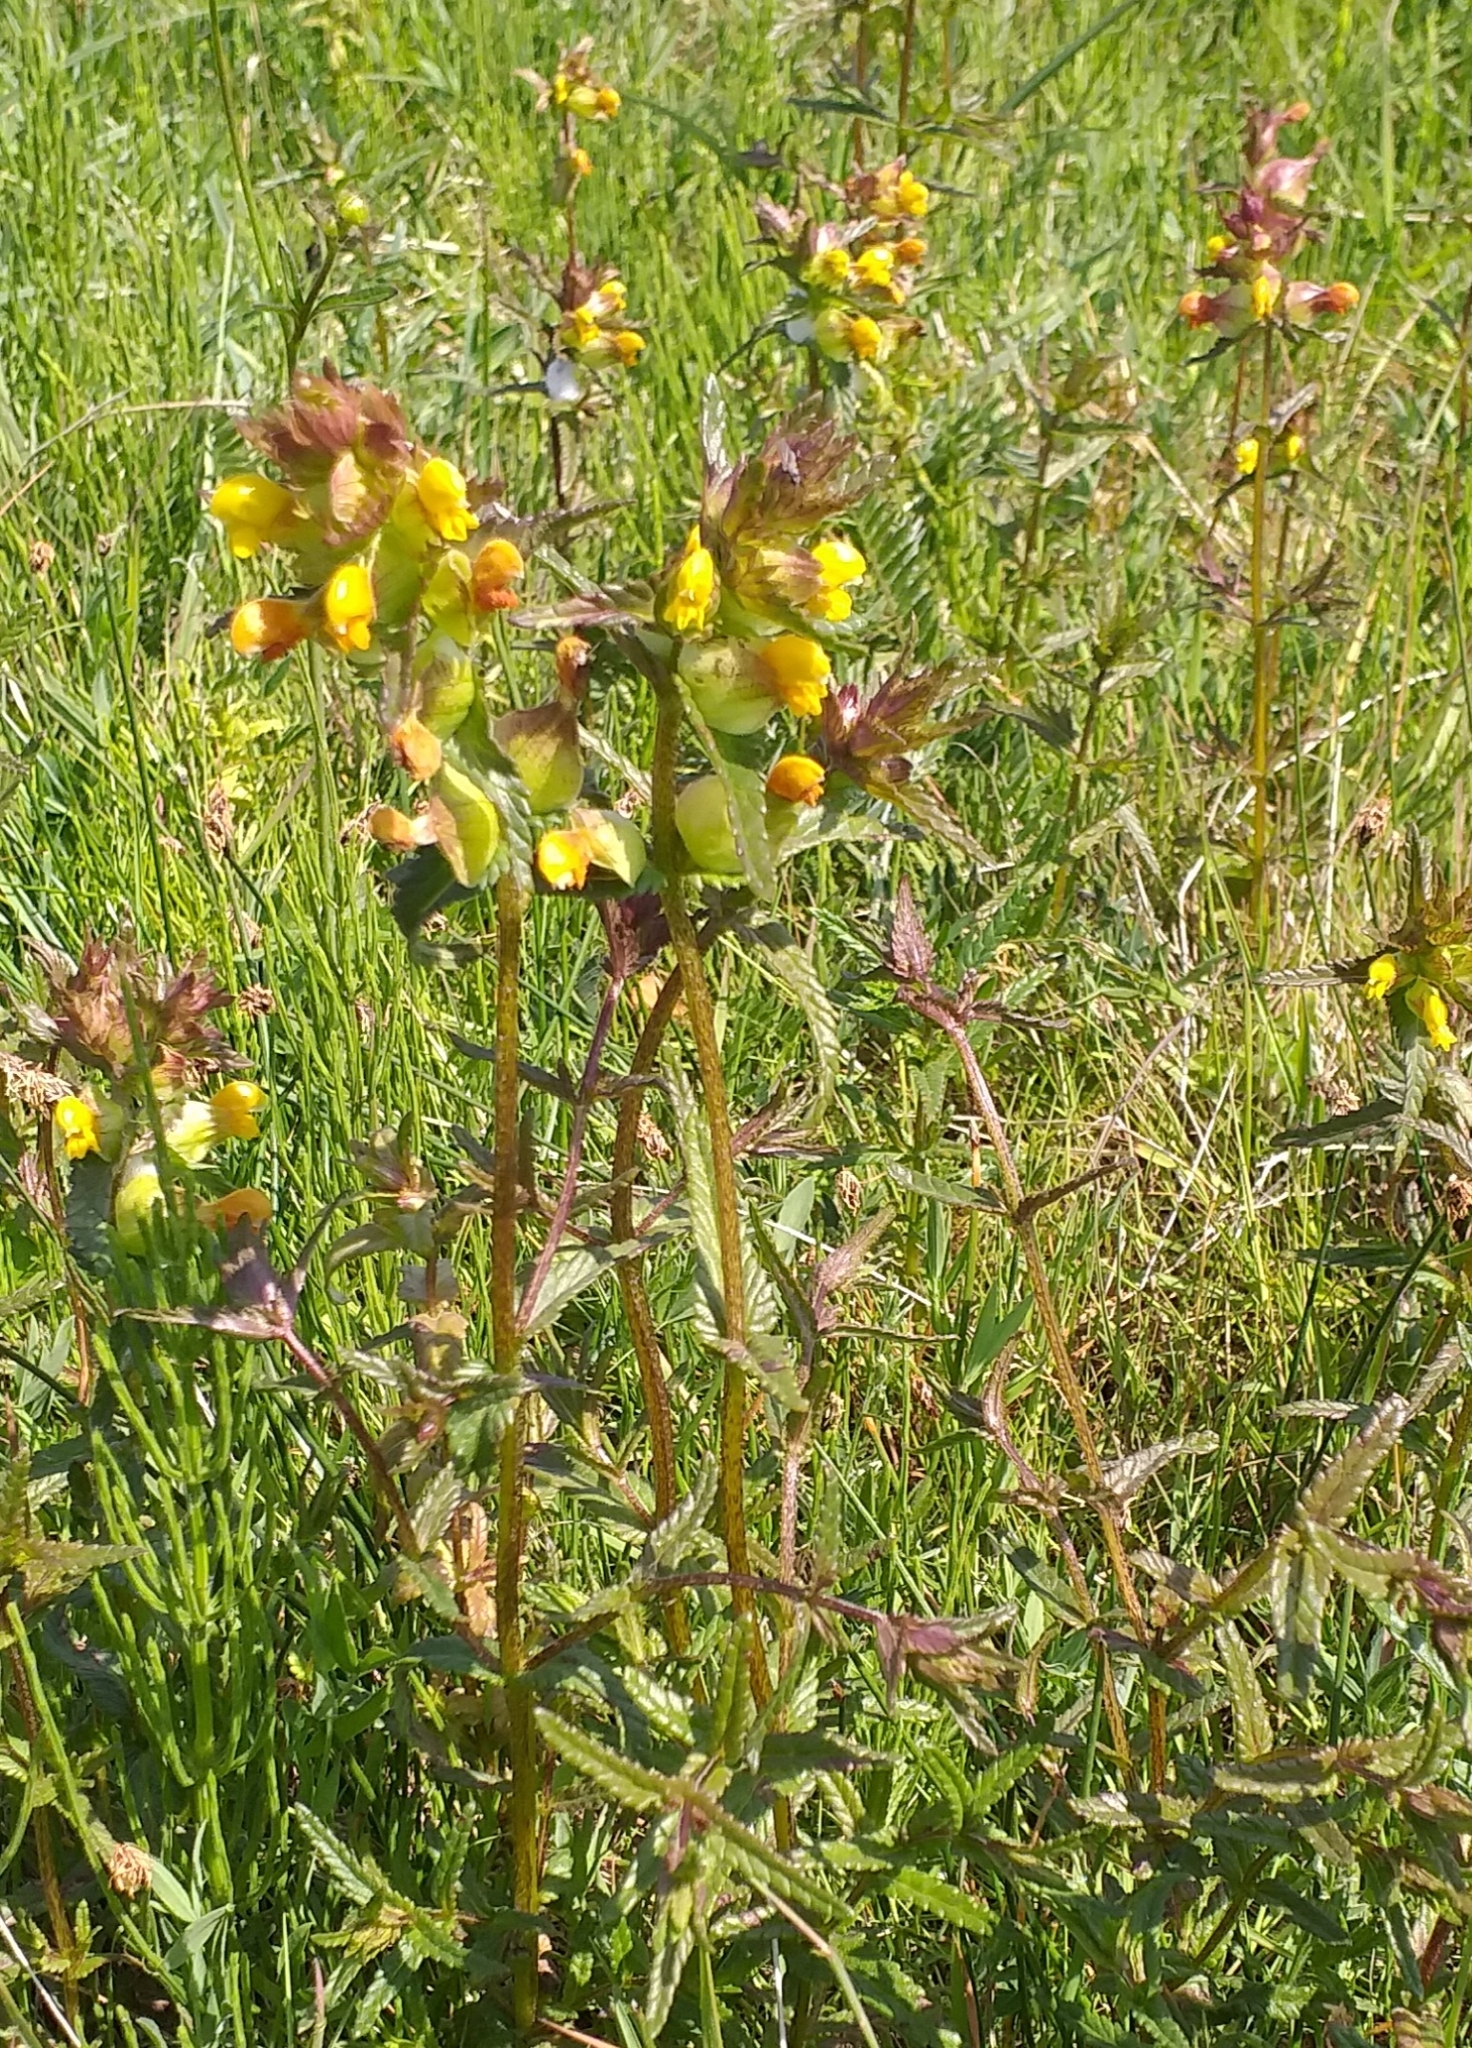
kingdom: Plantae
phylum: Tracheophyta
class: Magnoliopsida
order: Lamiales
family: Orobanchaceae
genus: Rhinanthus
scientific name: Rhinanthus minor
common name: Yellow-rattle
